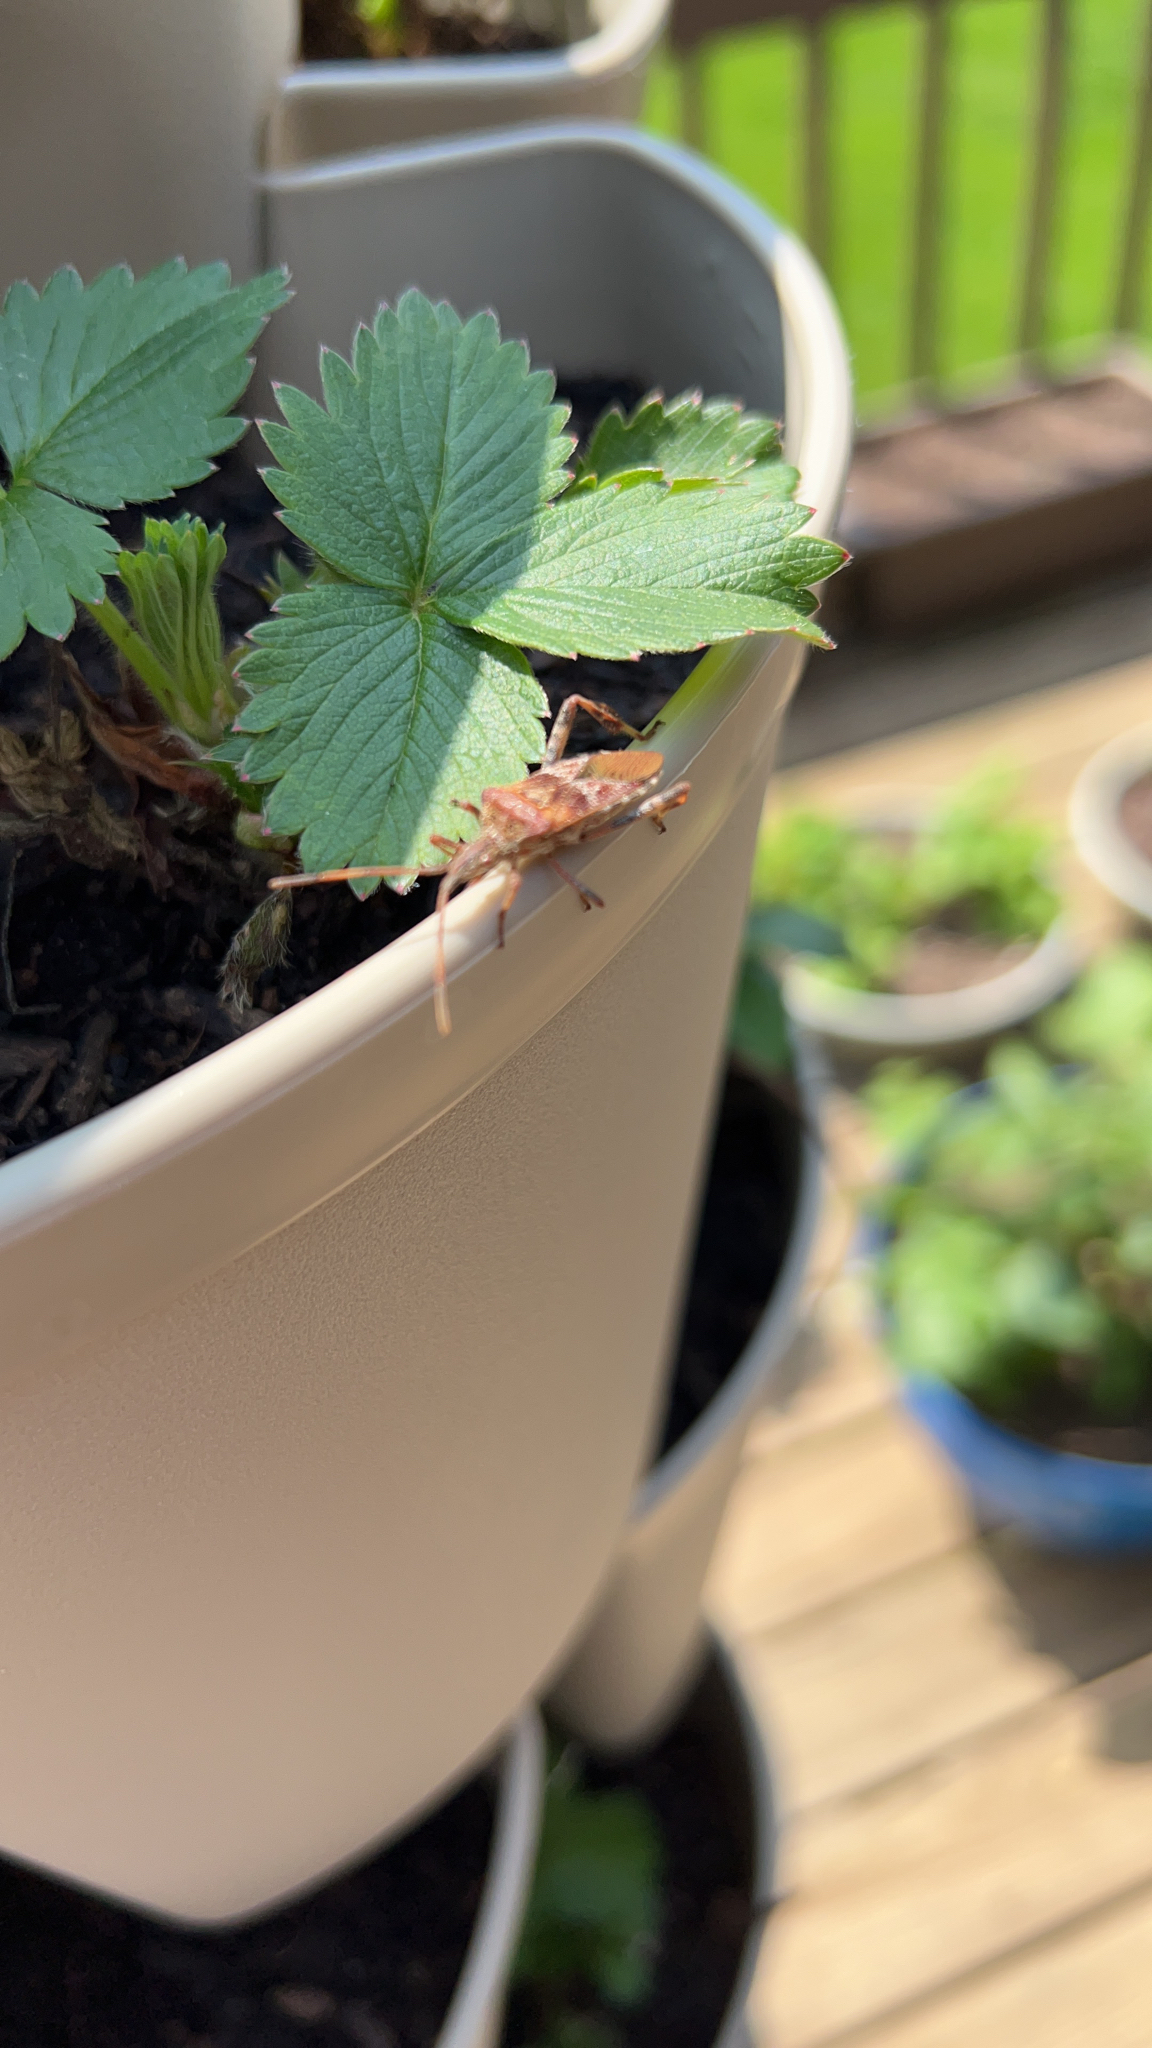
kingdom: Animalia
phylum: Arthropoda
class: Insecta
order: Hemiptera
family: Coreidae
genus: Leptoglossus
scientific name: Leptoglossus occidentalis
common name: Western conifer-seed bug
